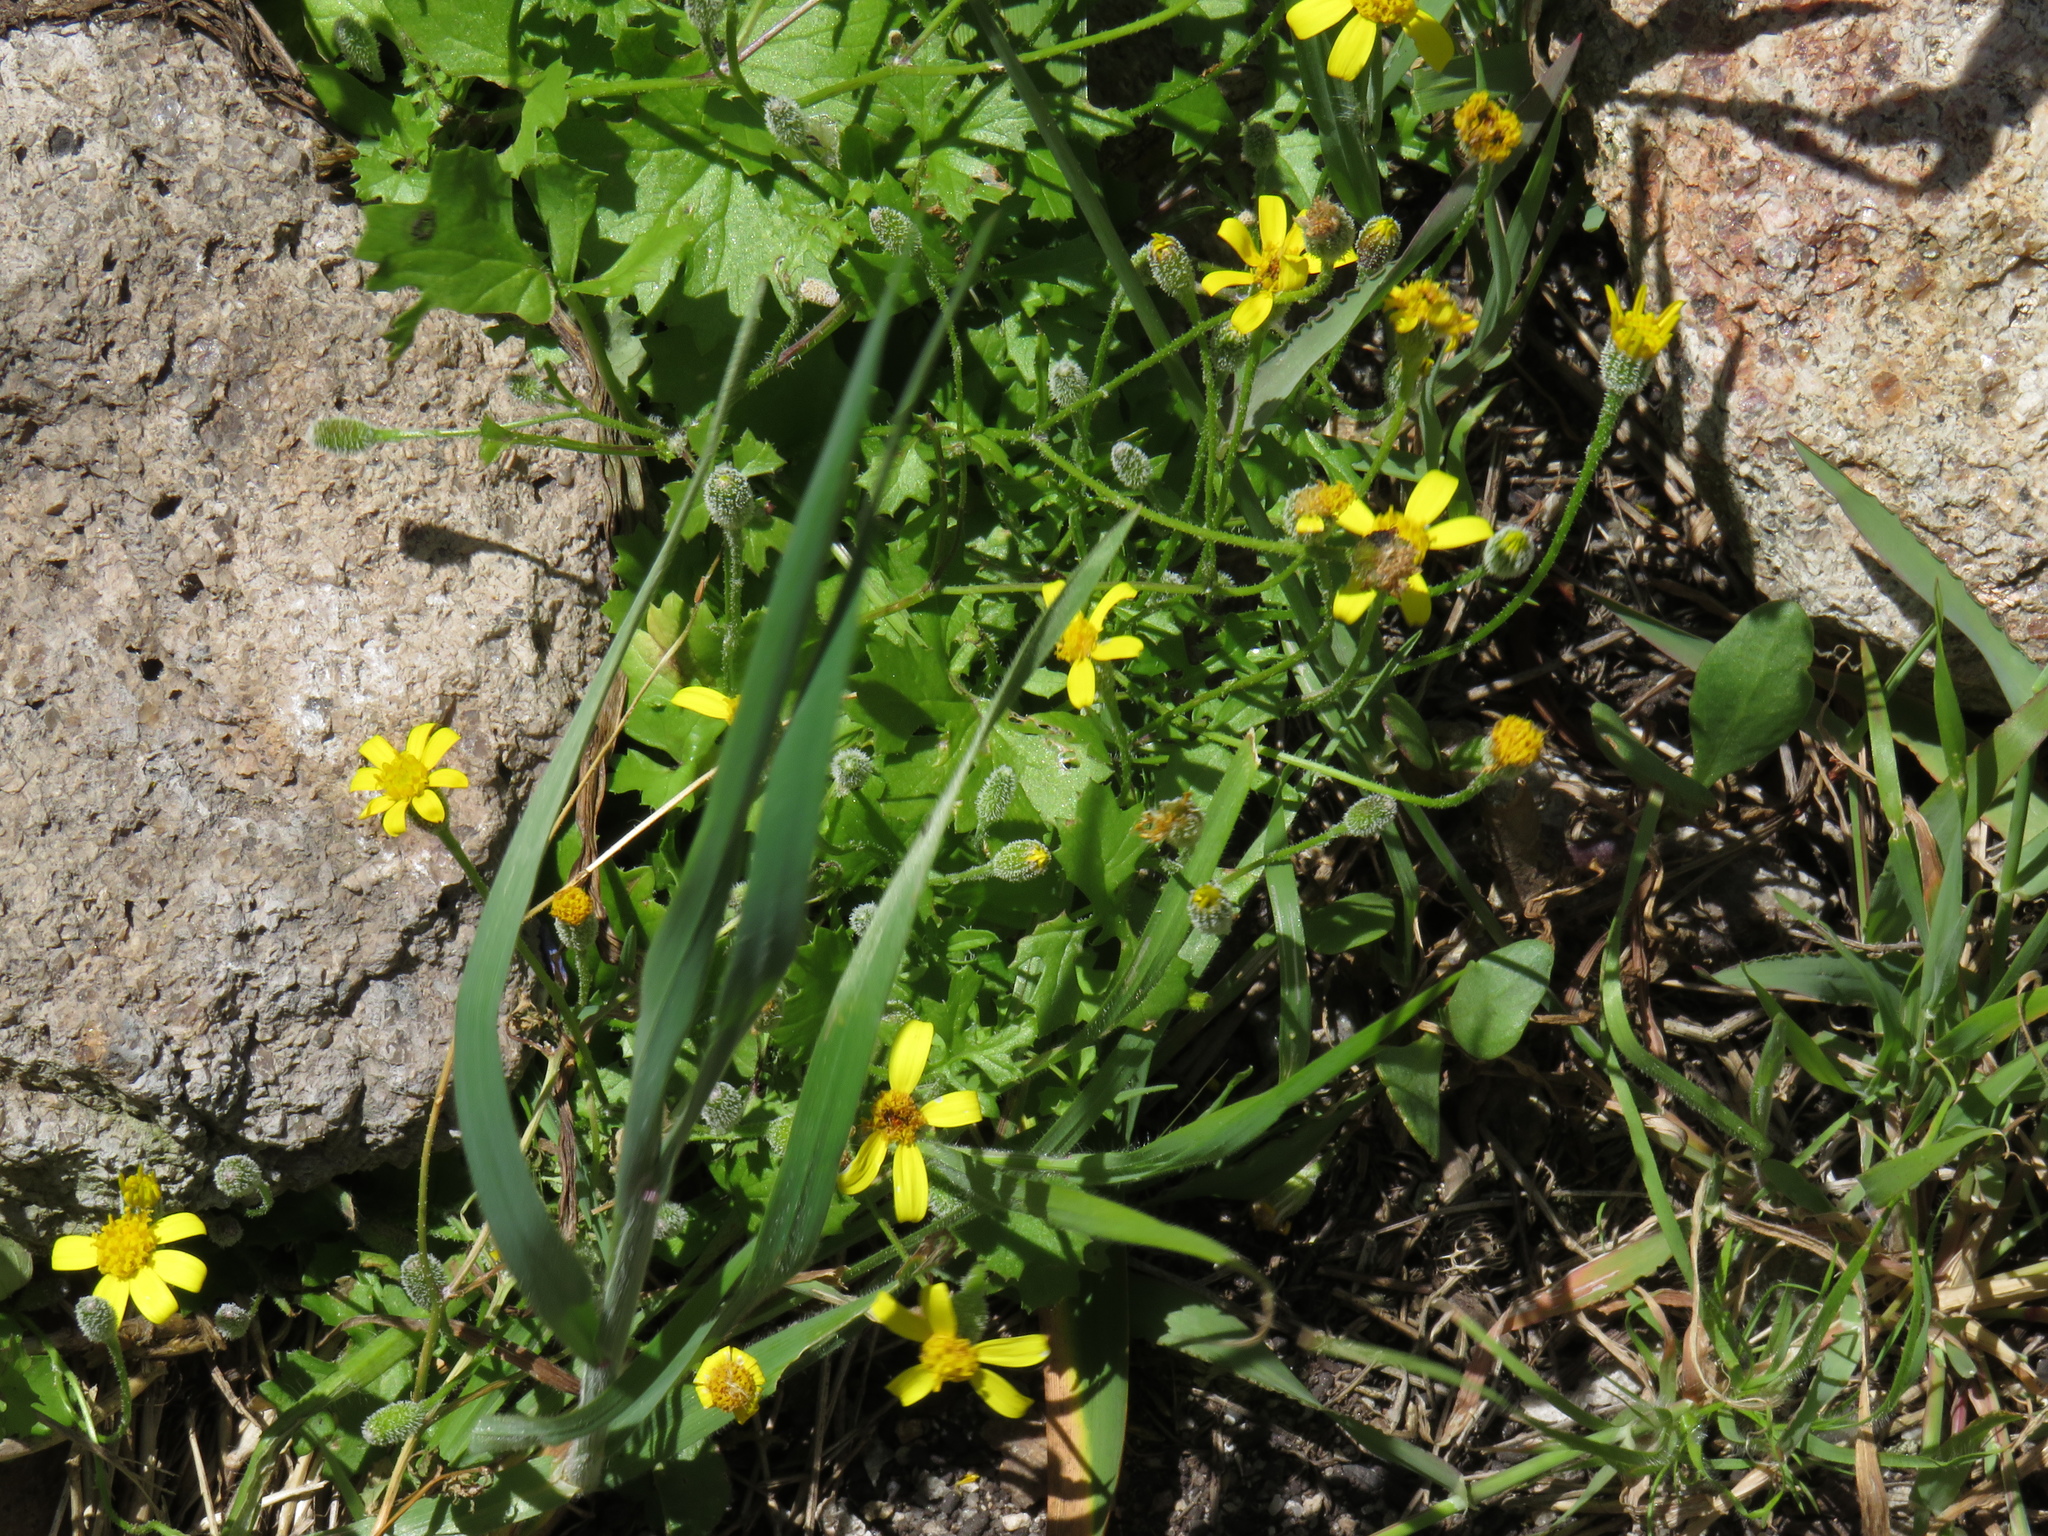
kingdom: Plantae
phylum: Tracheophyta
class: Magnoliopsida
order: Asterales
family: Asteraceae
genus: Cineraria
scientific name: Cineraria angulosa
